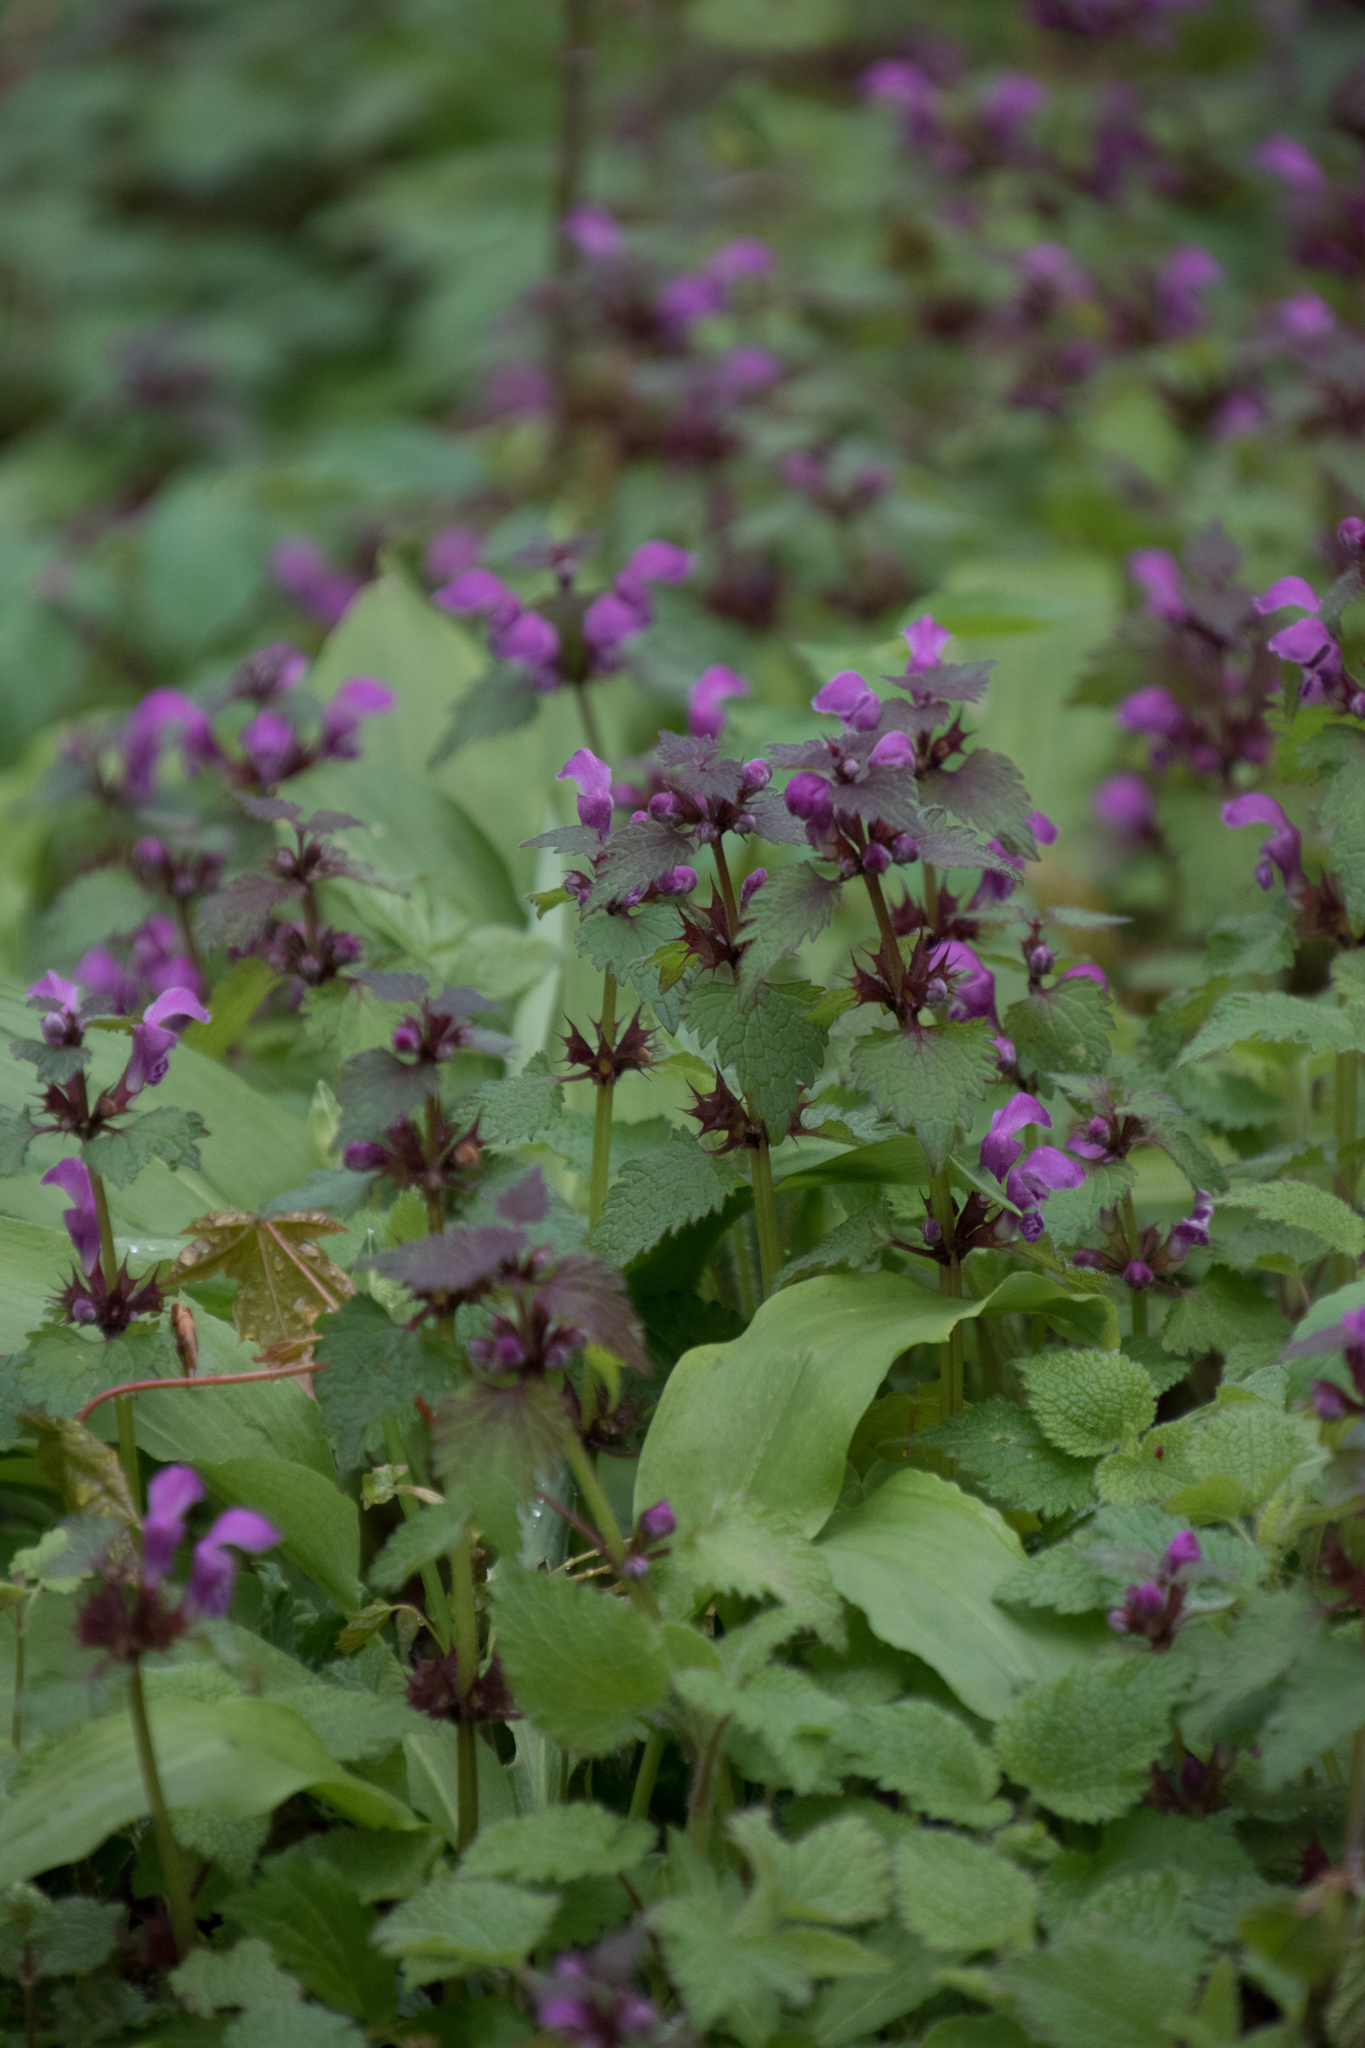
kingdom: Plantae
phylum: Tracheophyta
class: Magnoliopsida
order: Lamiales
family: Lamiaceae
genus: Lamium
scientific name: Lamium maculatum
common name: Spotted dead-nettle
